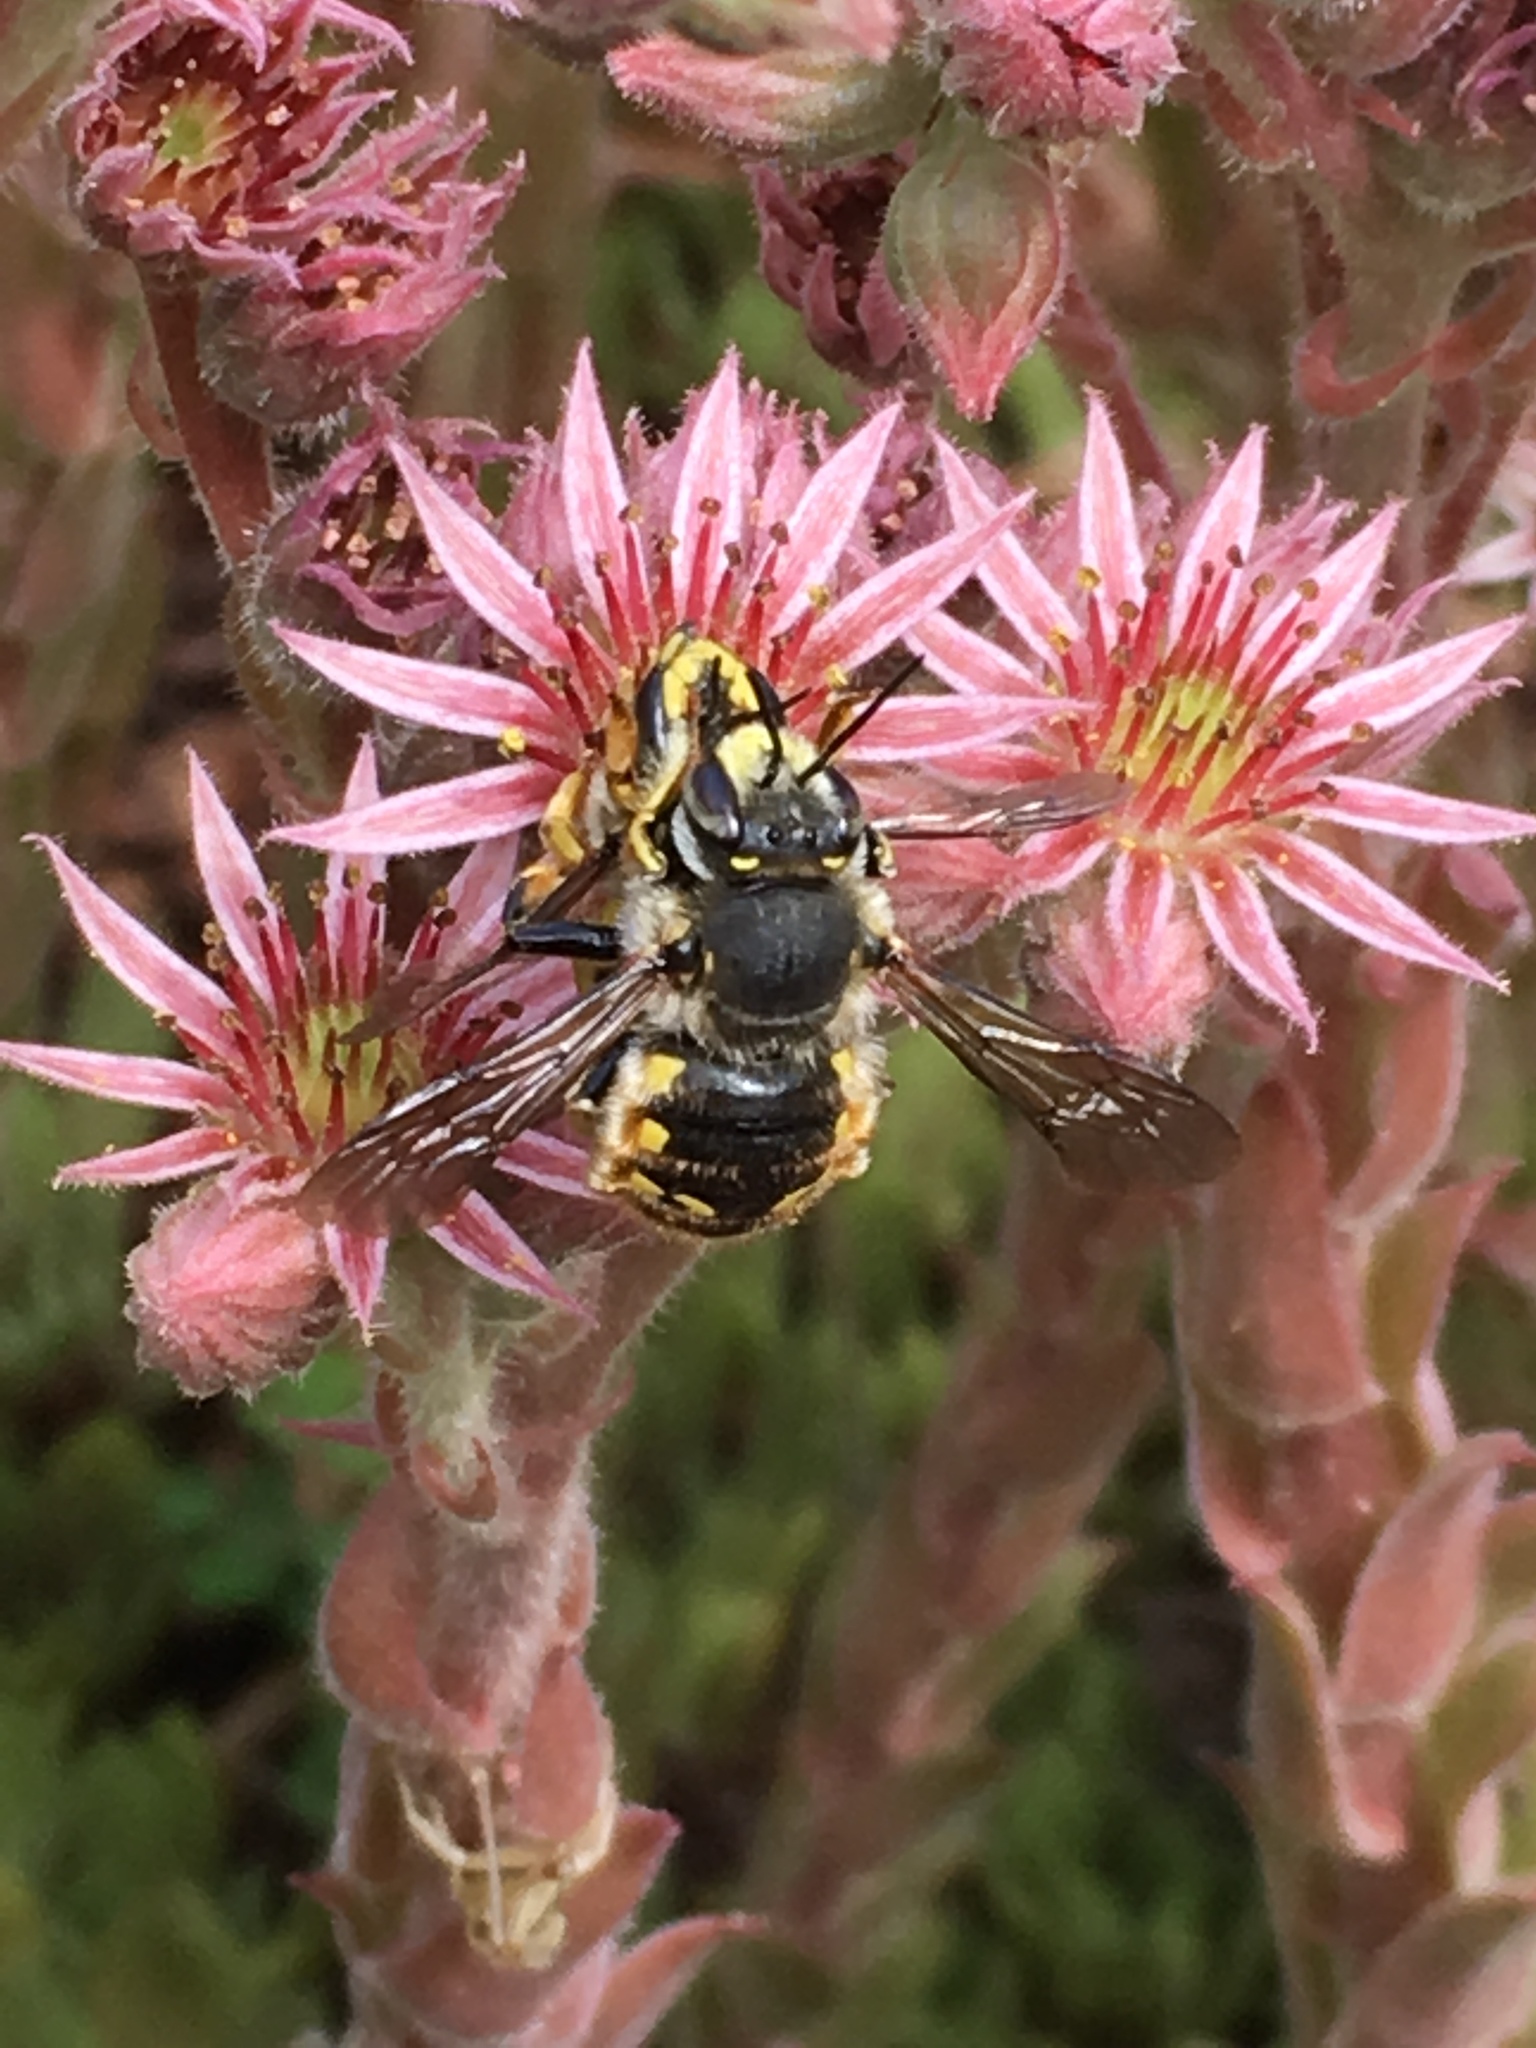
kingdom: Animalia
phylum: Arthropoda
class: Insecta
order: Hymenoptera
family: Megachilidae
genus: Anthidium
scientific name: Anthidium manicatum
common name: Wool carder bee
